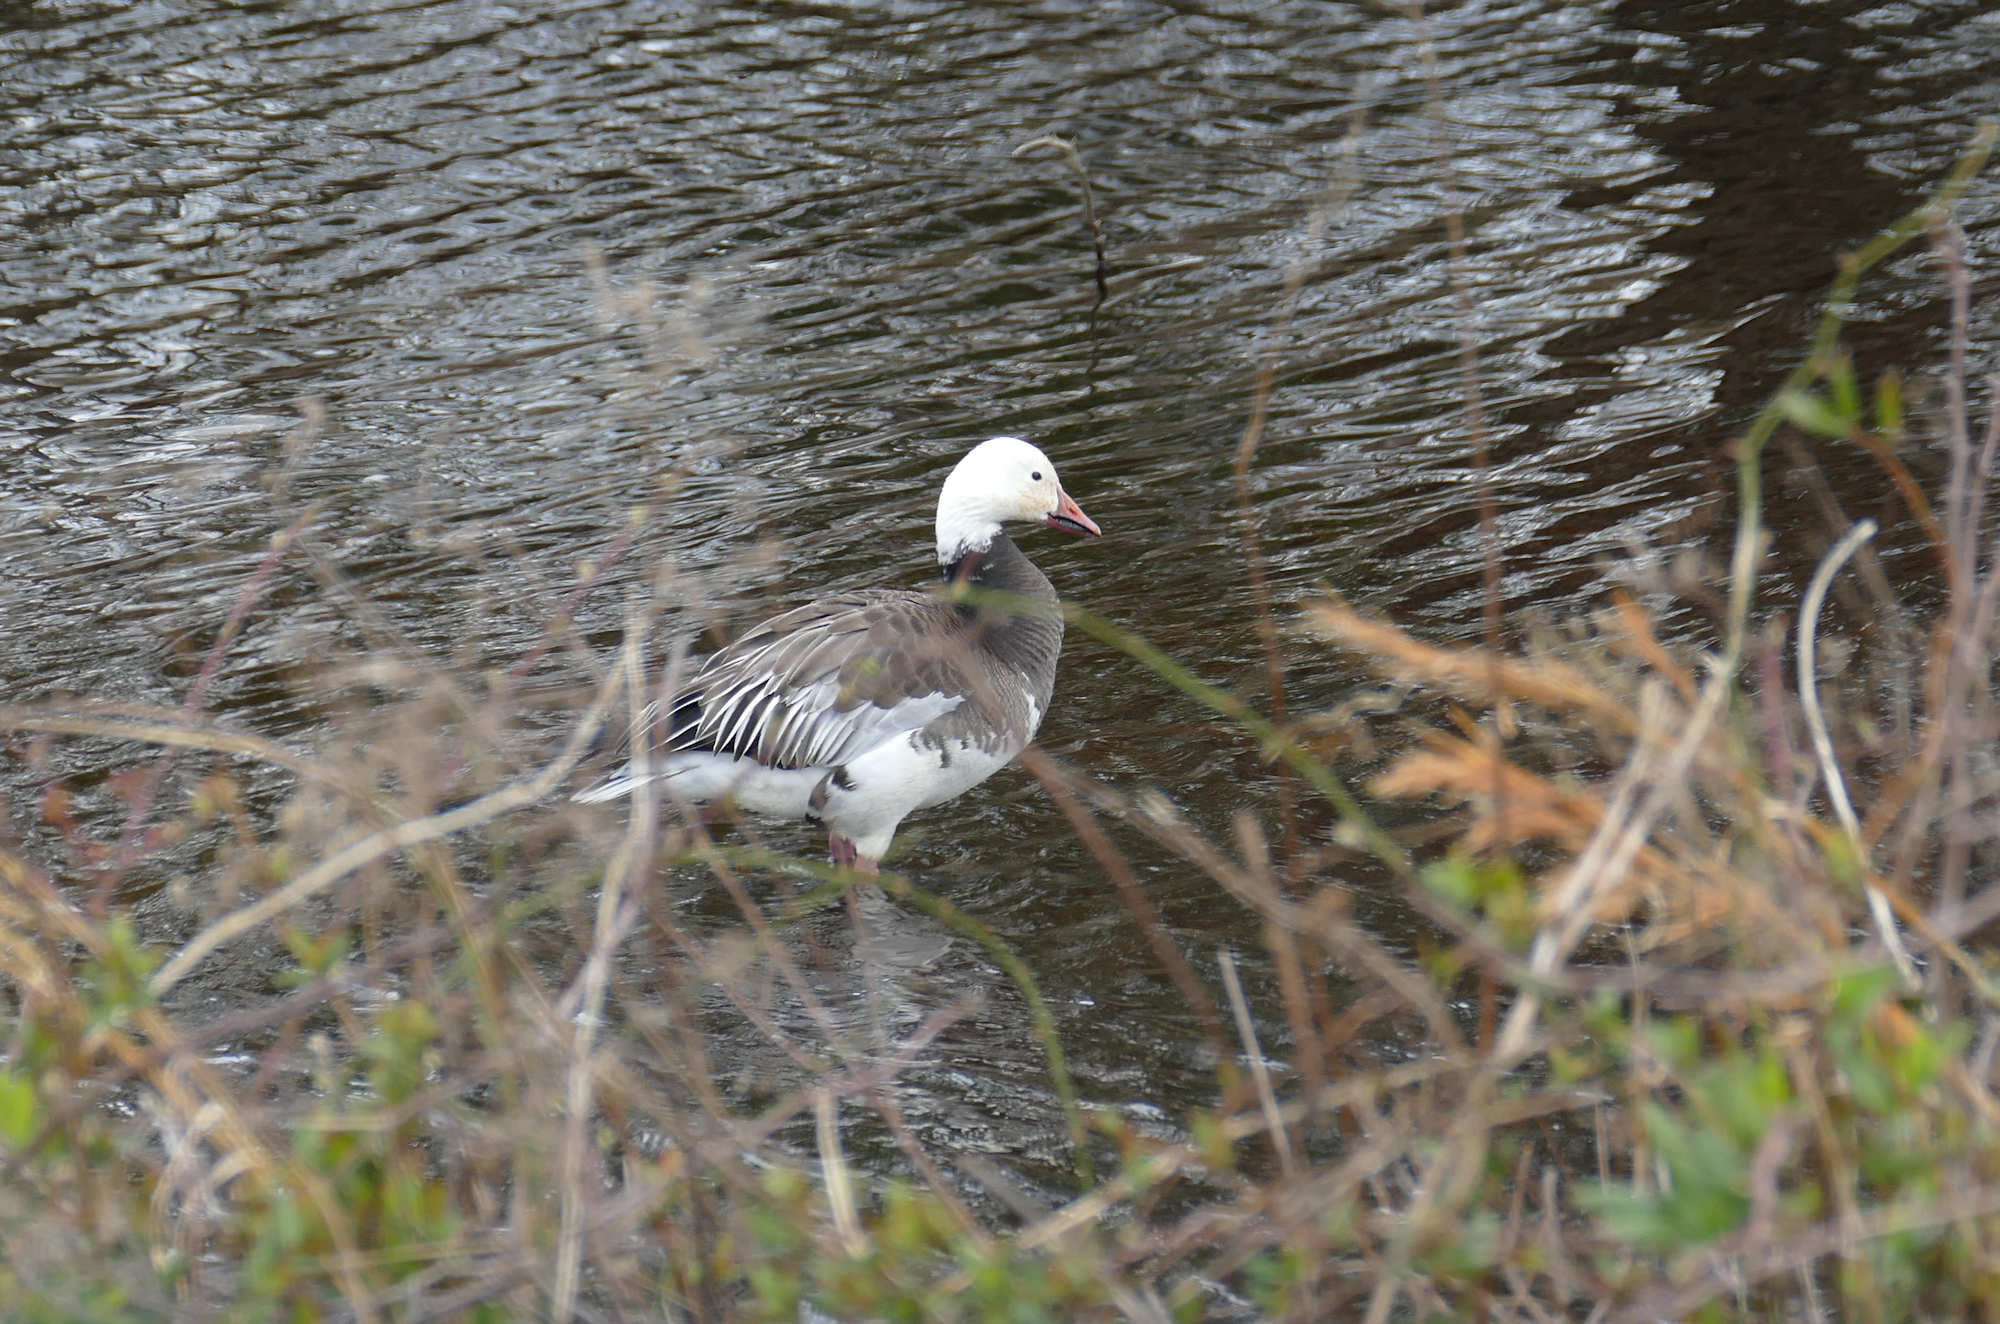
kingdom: Animalia
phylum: Chordata
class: Aves
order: Anseriformes
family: Anatidae
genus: Anser
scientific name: Anser caerulescens
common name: Snow goose
